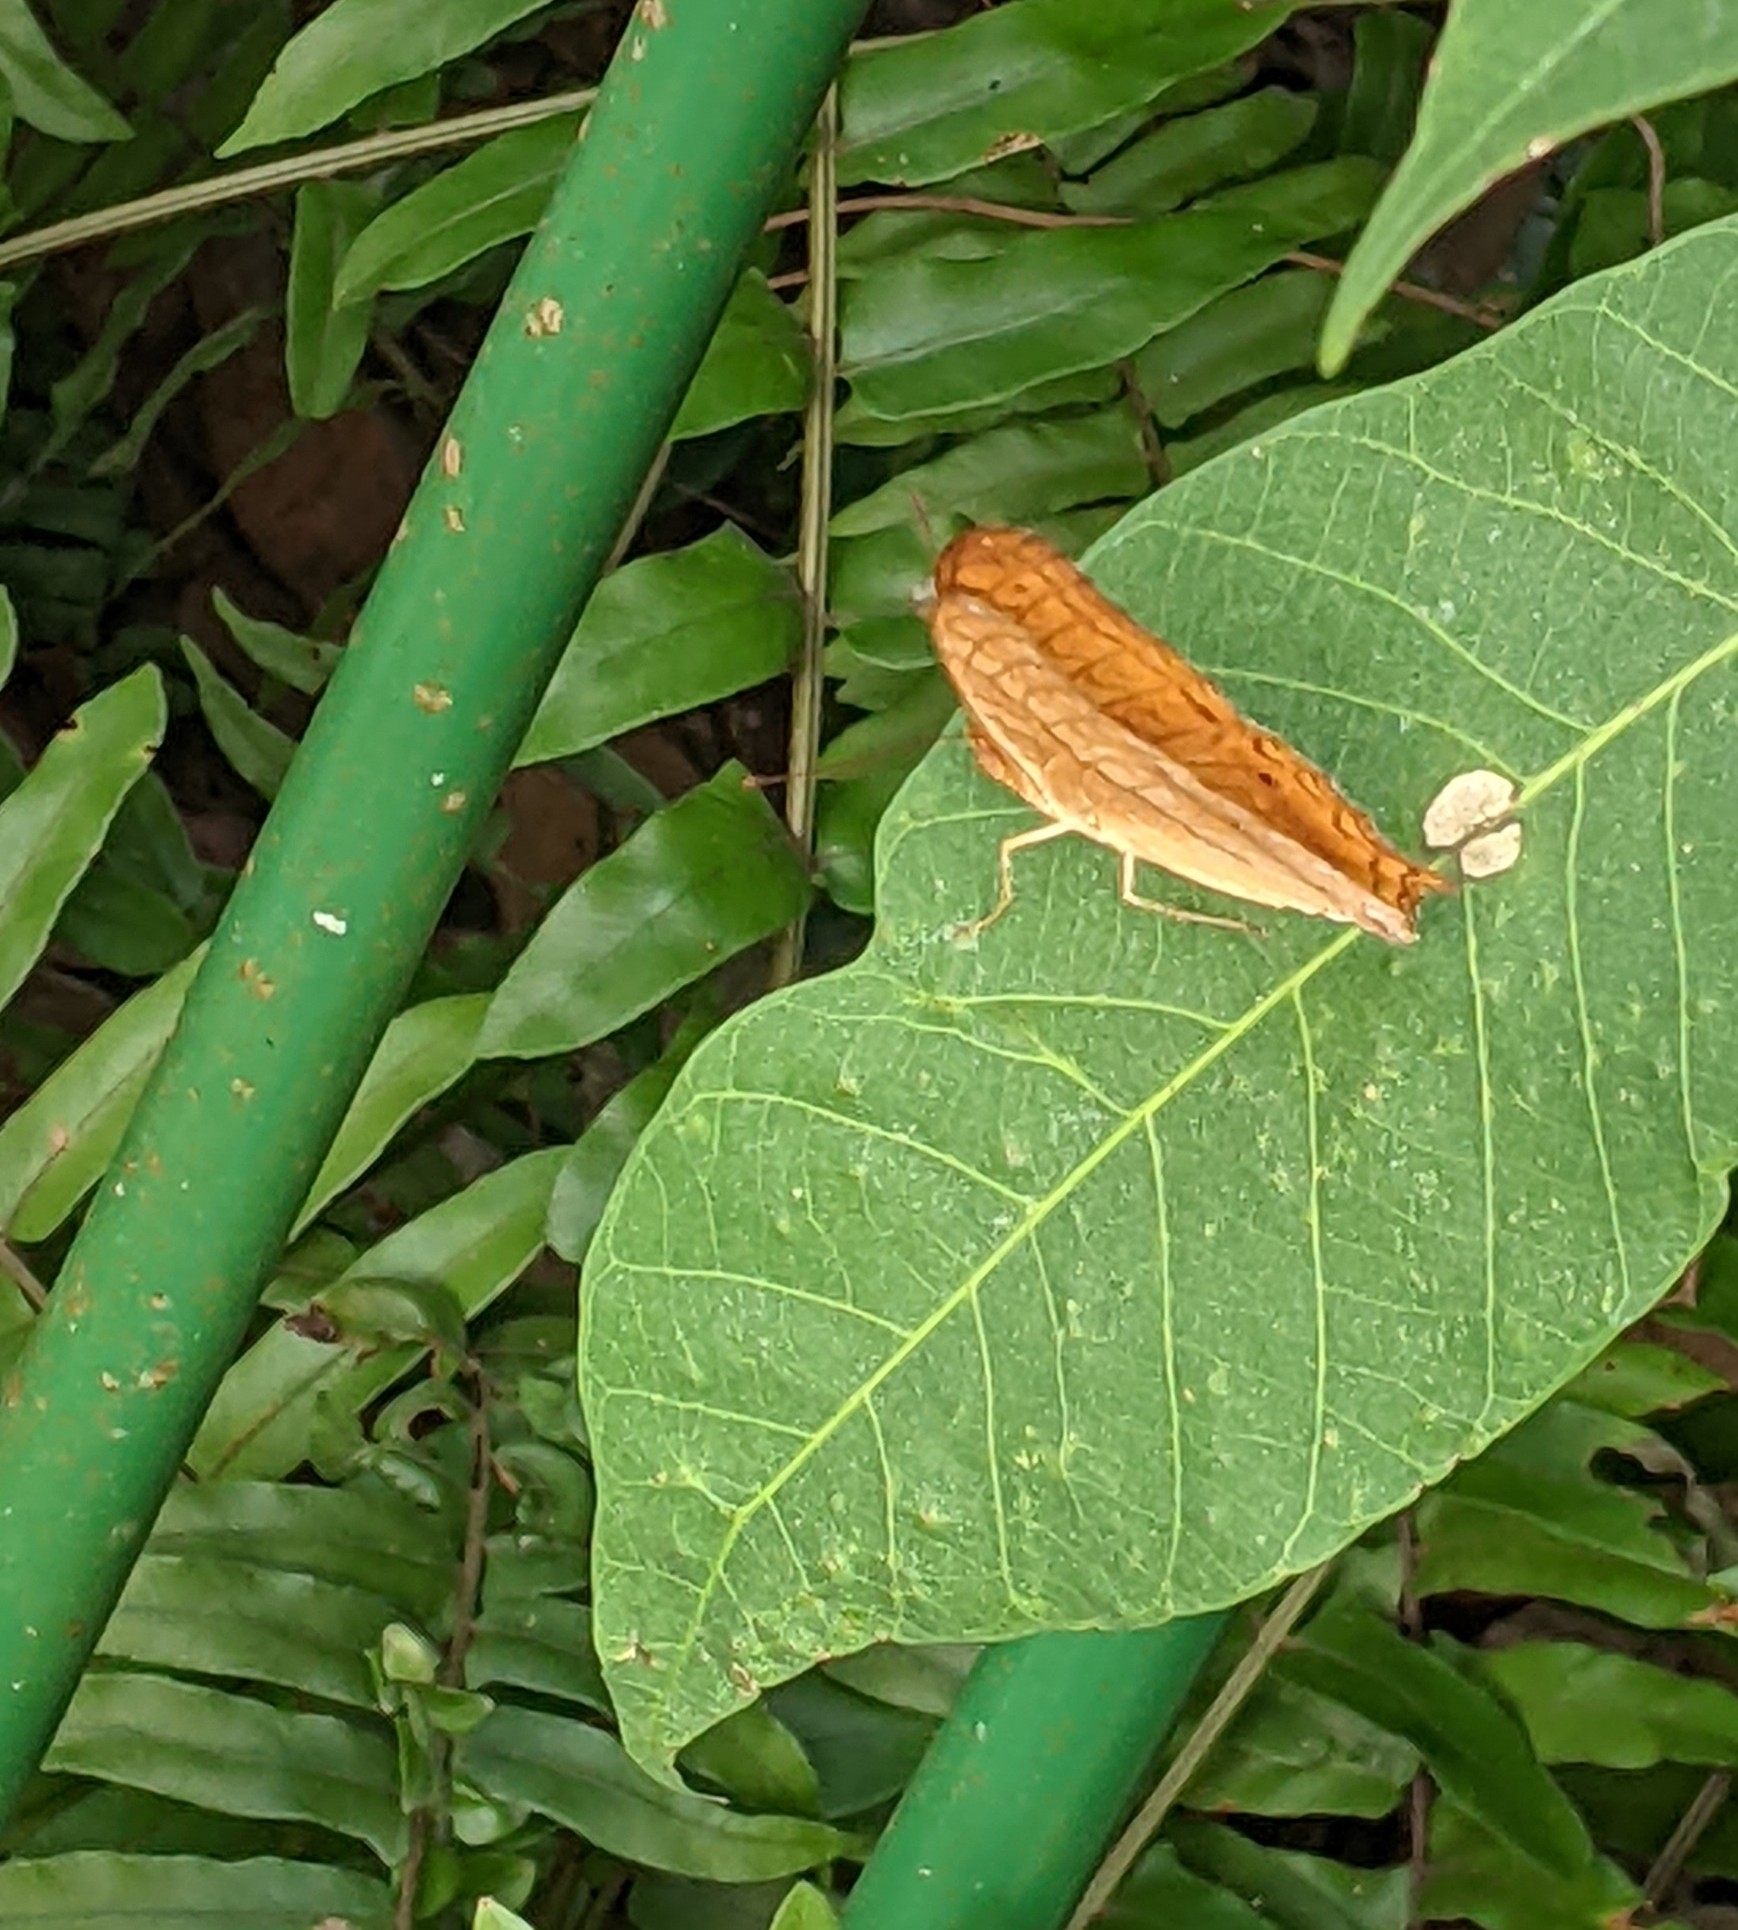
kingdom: Animalia
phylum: Arthropoda
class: Insecta
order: Lepidoptera
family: Nymphalidae
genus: Vindula
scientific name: Vindula deione
